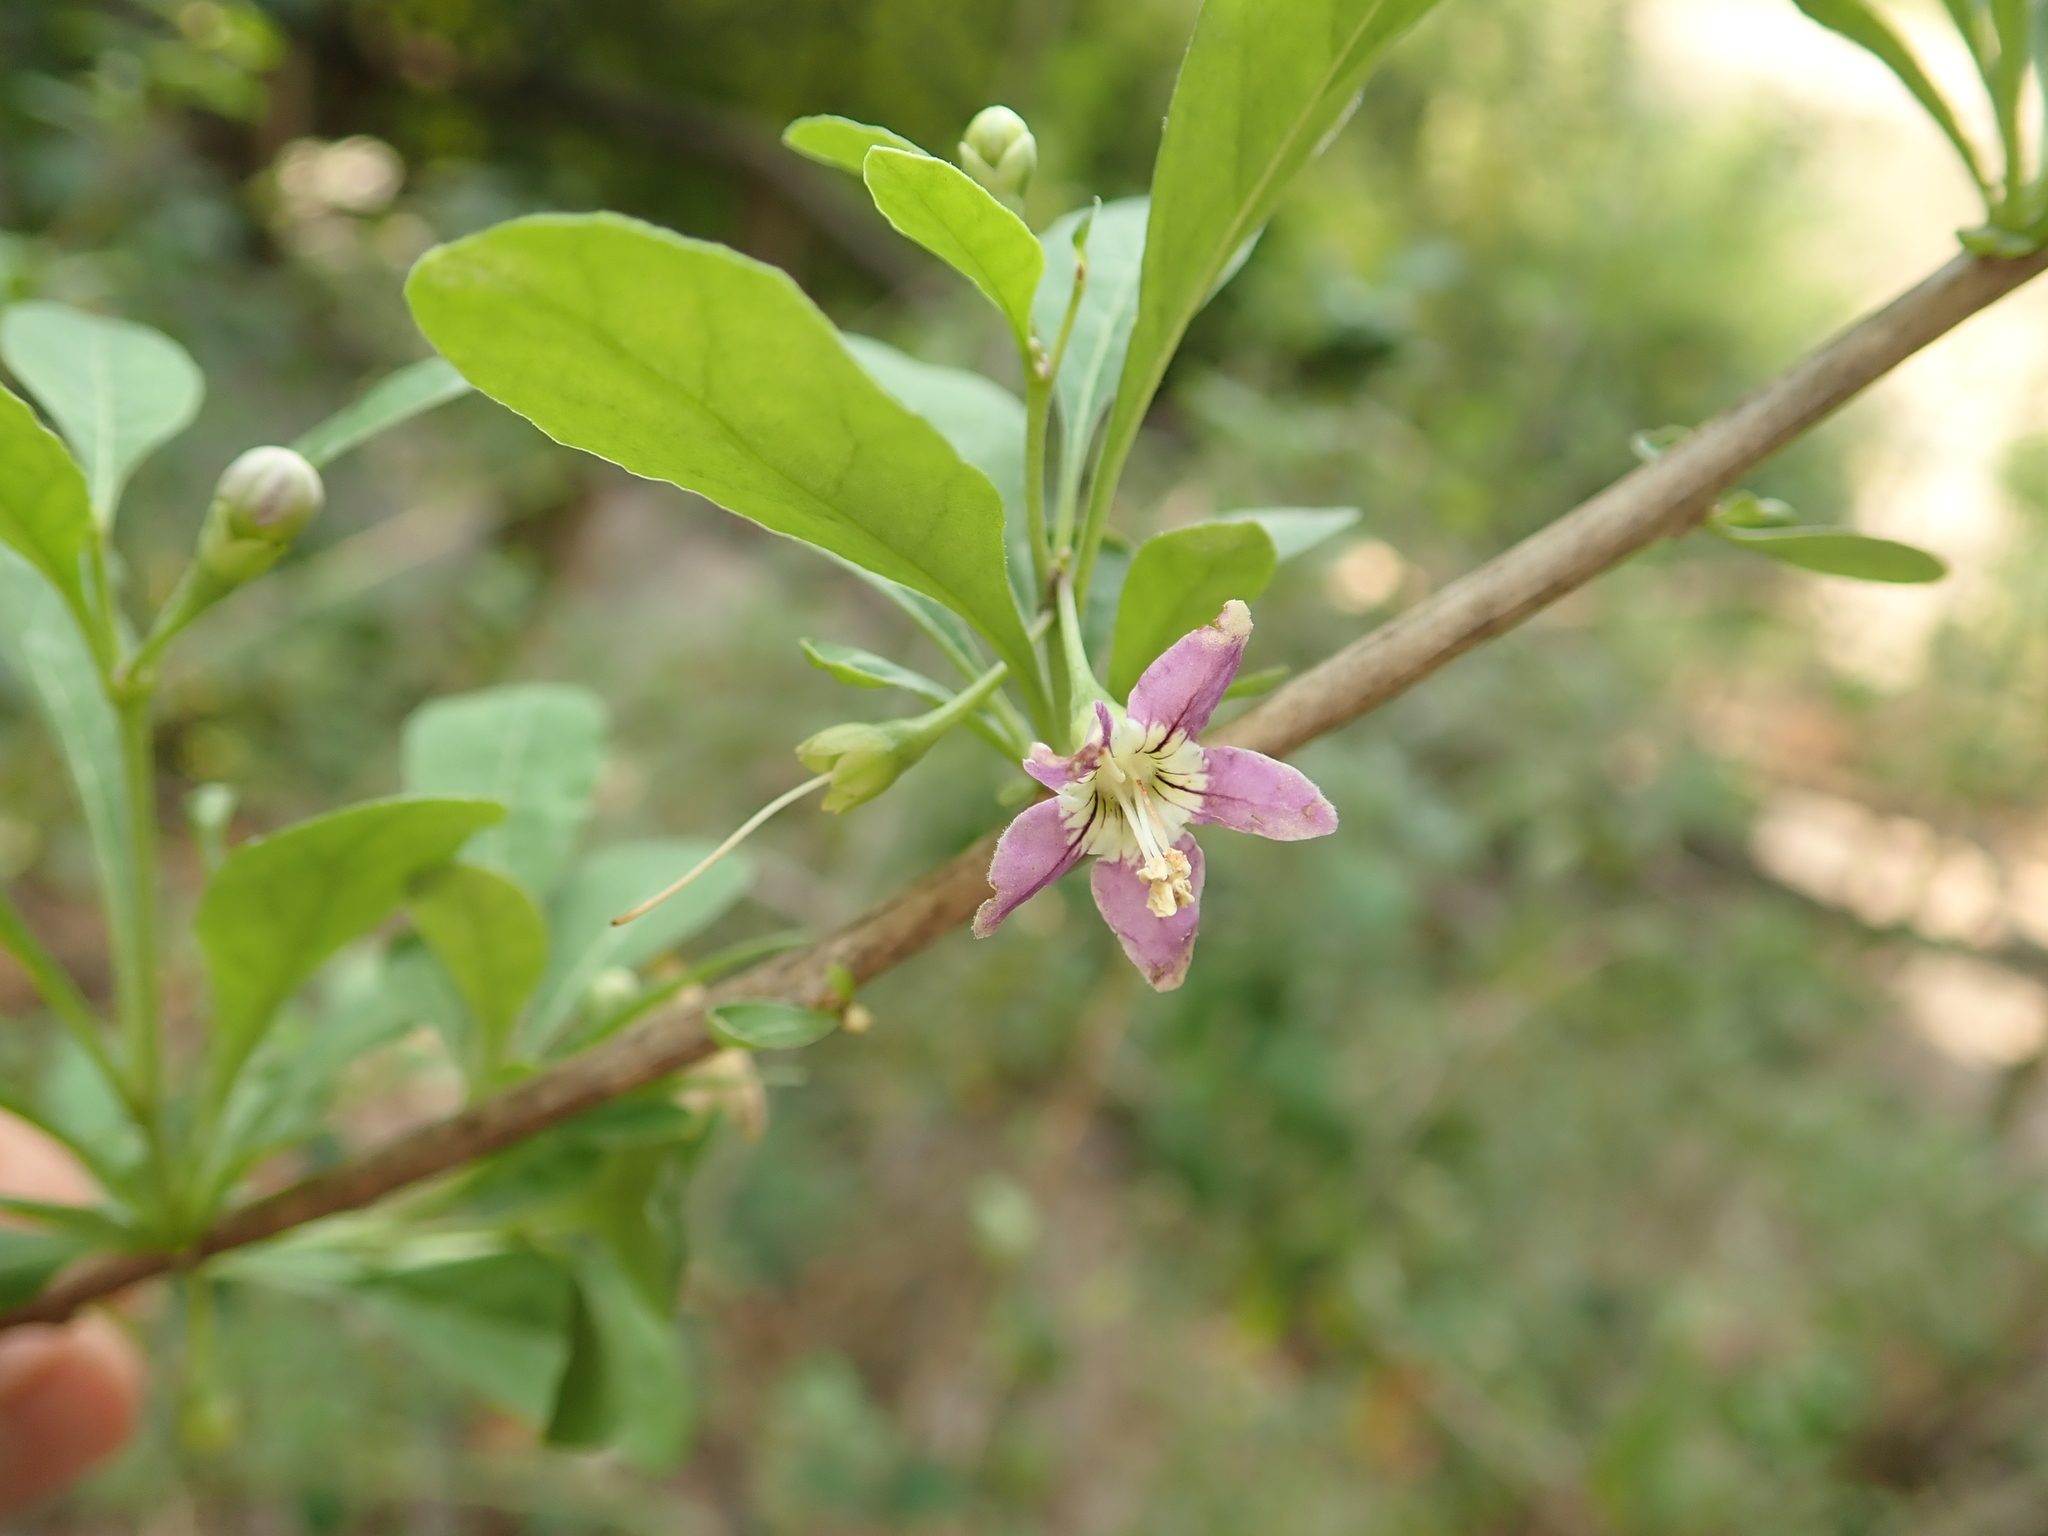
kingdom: Plantae
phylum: Tracheophyta
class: Magnoliopsida
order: Solanales
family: Solanaceae
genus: Lycium
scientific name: Lycium barbarum
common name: Duke of argyll's teaplant
